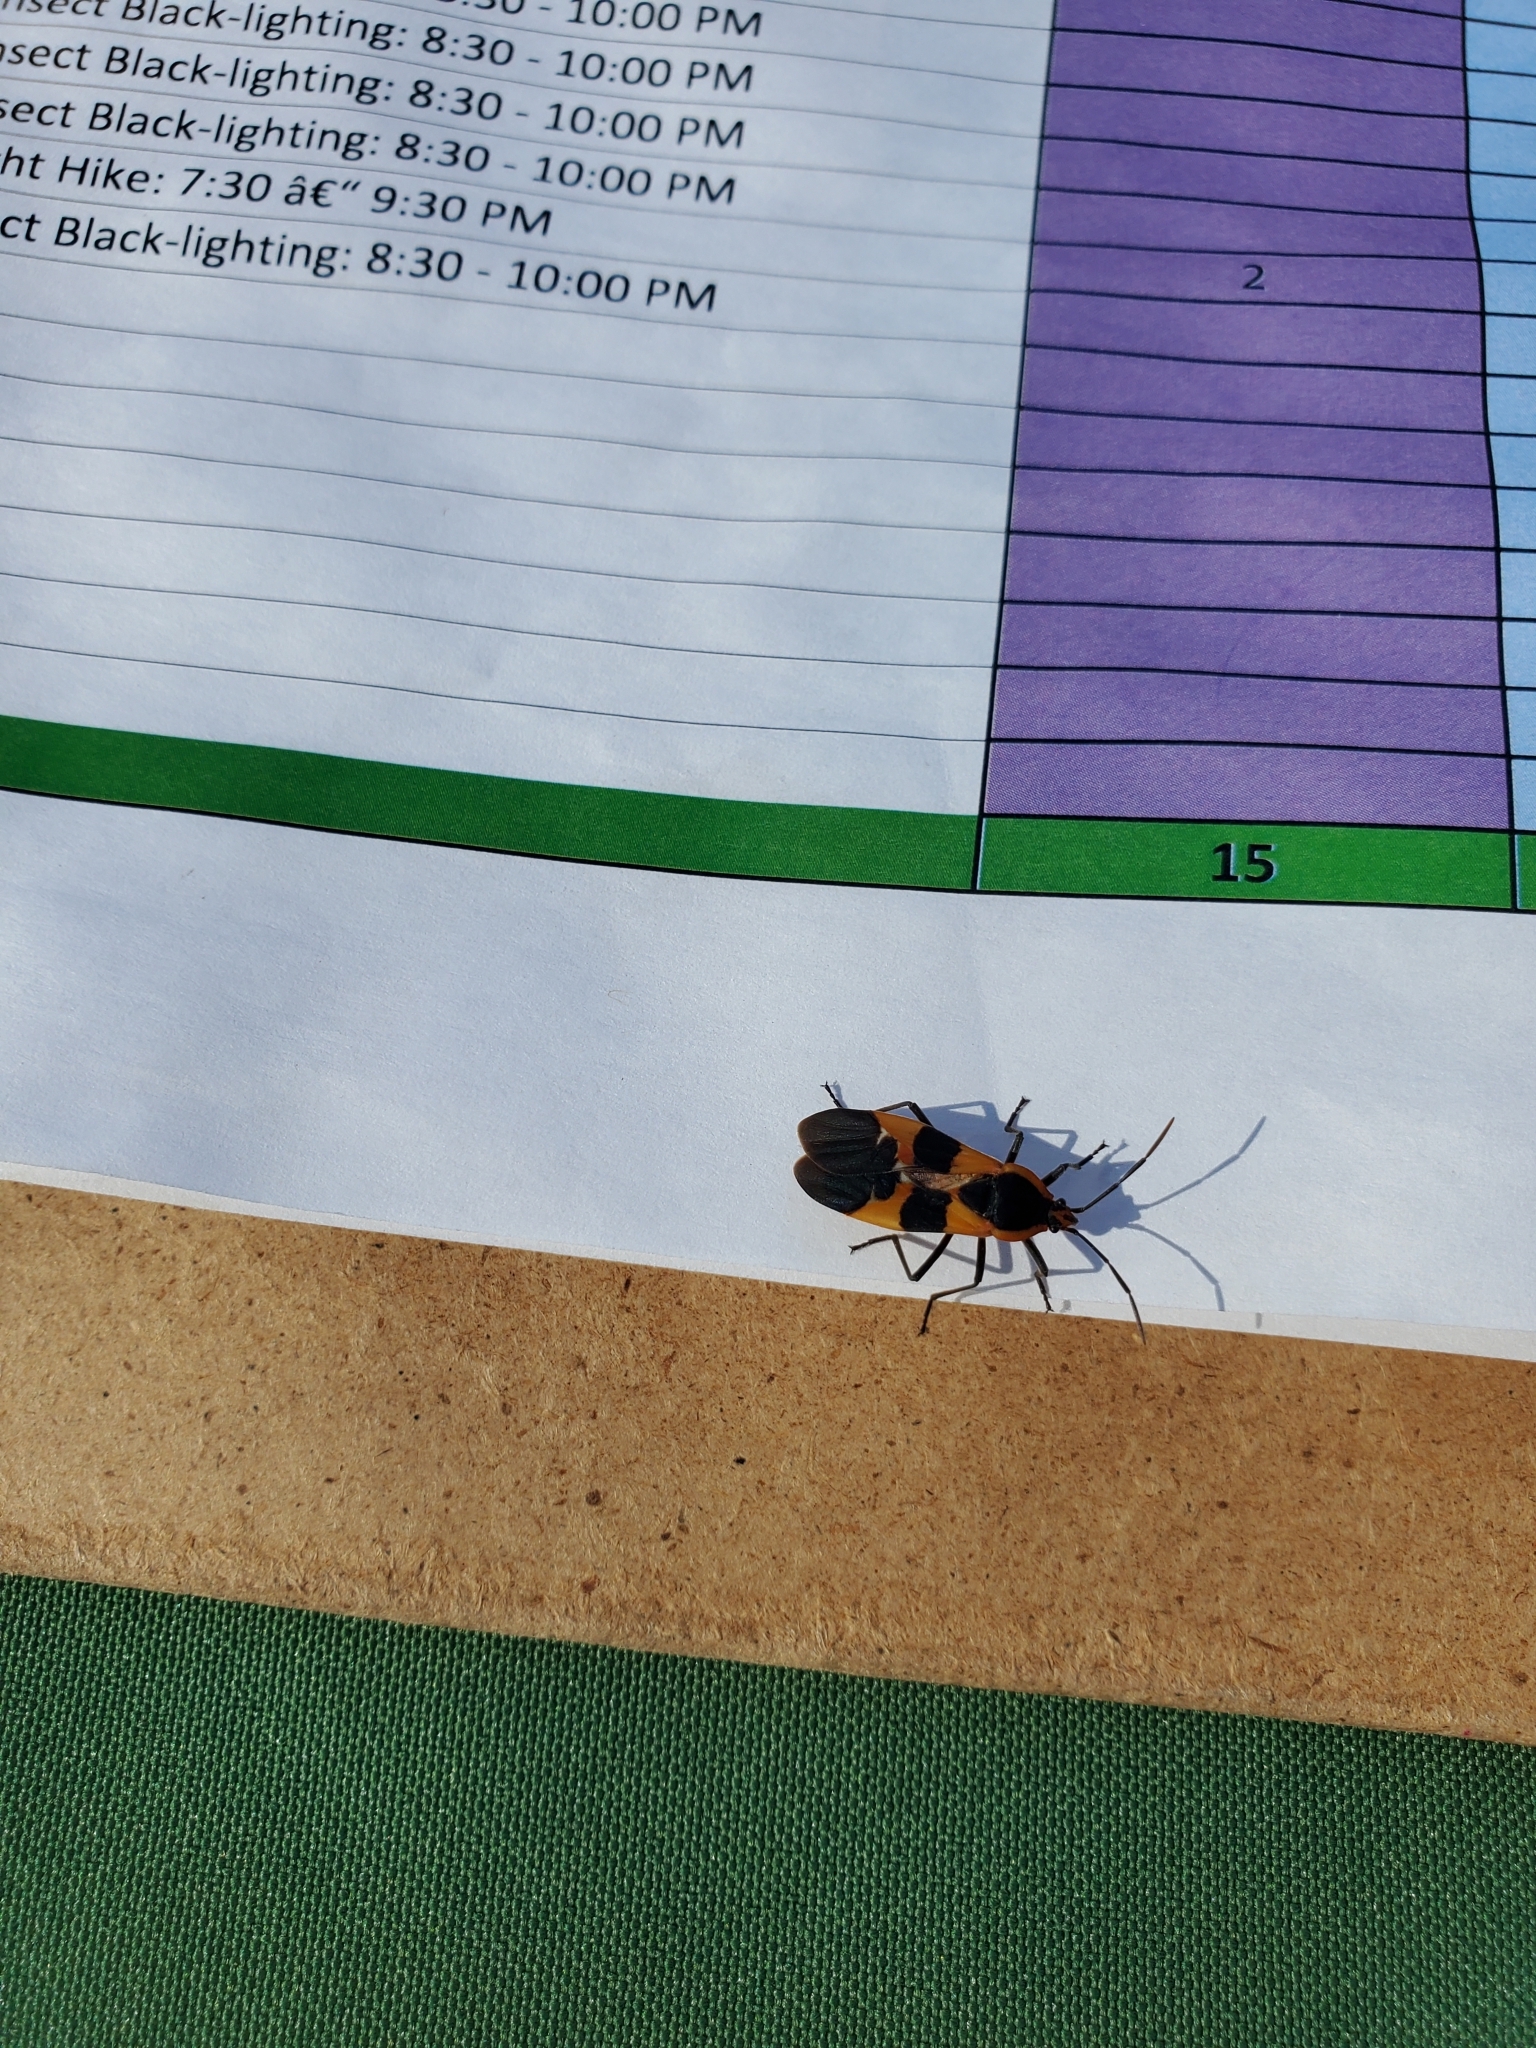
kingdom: Animalia
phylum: Arthropoda
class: Insecta
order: Hemiptera
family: Lygaeidae
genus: Oncopeltus
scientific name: Oncopeltus fasciatus
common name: Large milkweed bug
